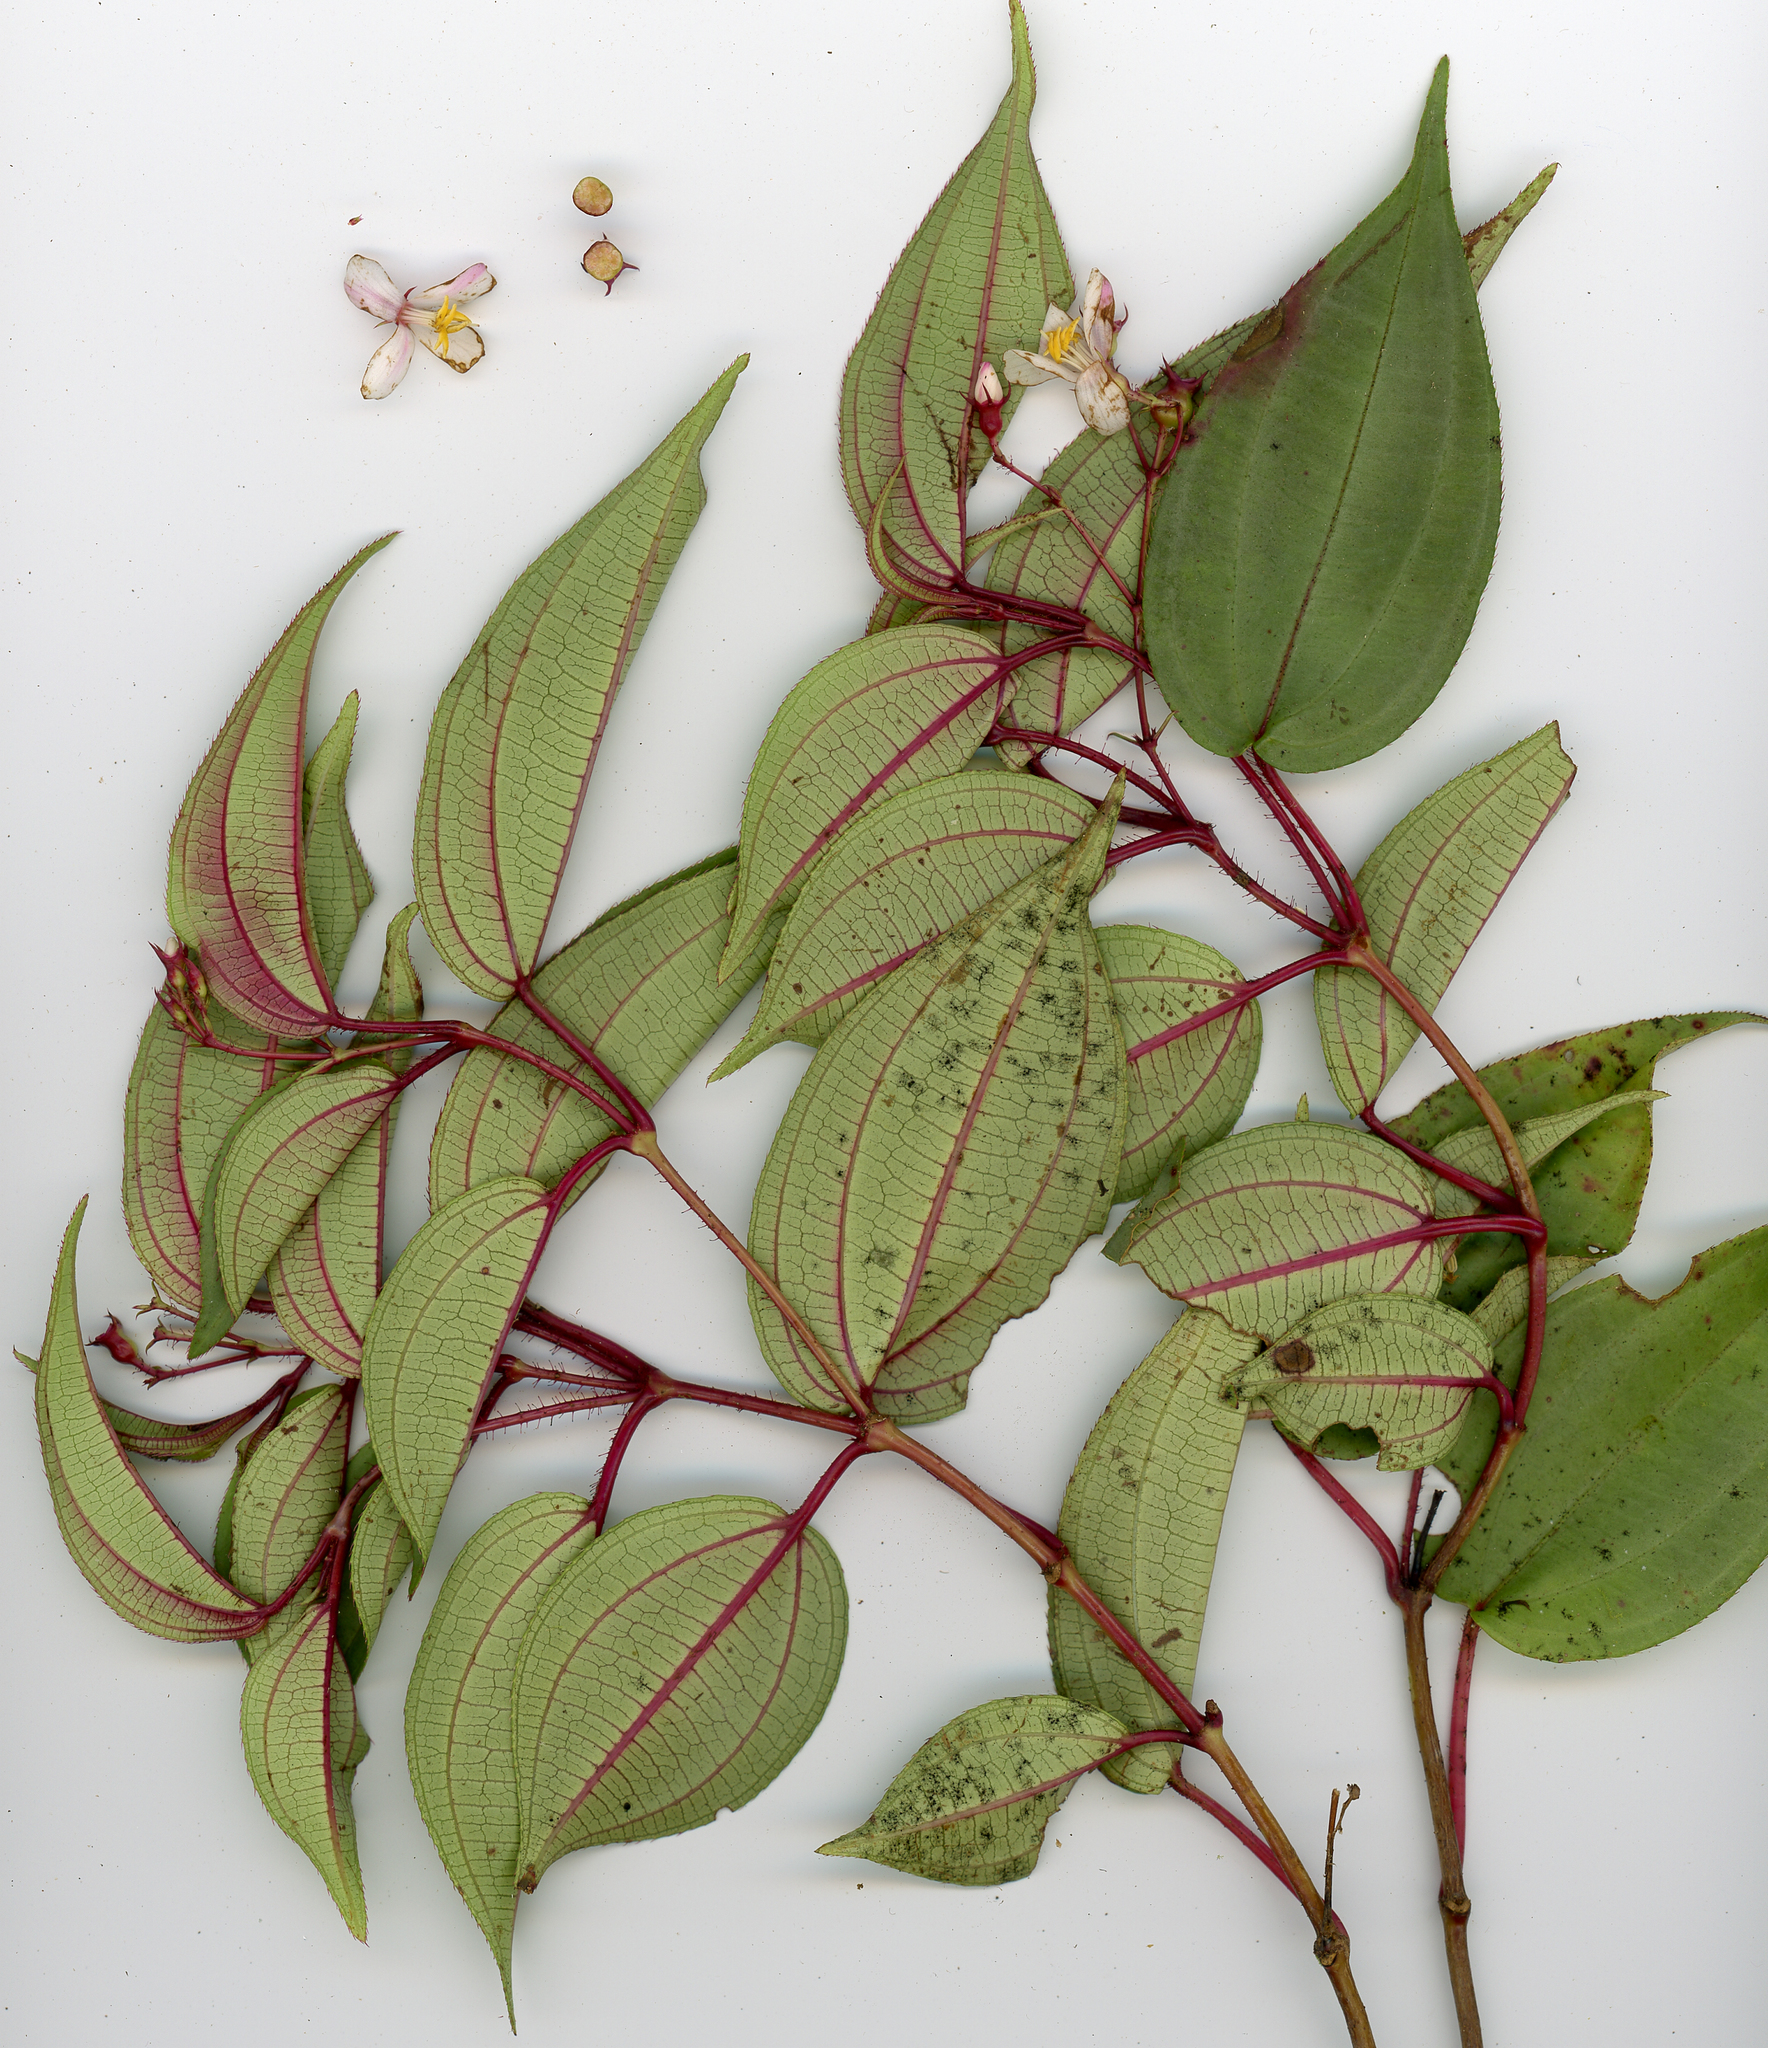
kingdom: Plantae
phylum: Tracheophyta
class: Magnoliopsida
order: Myrtales
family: Melastomataceae
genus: Miconia
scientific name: Miconia correae
